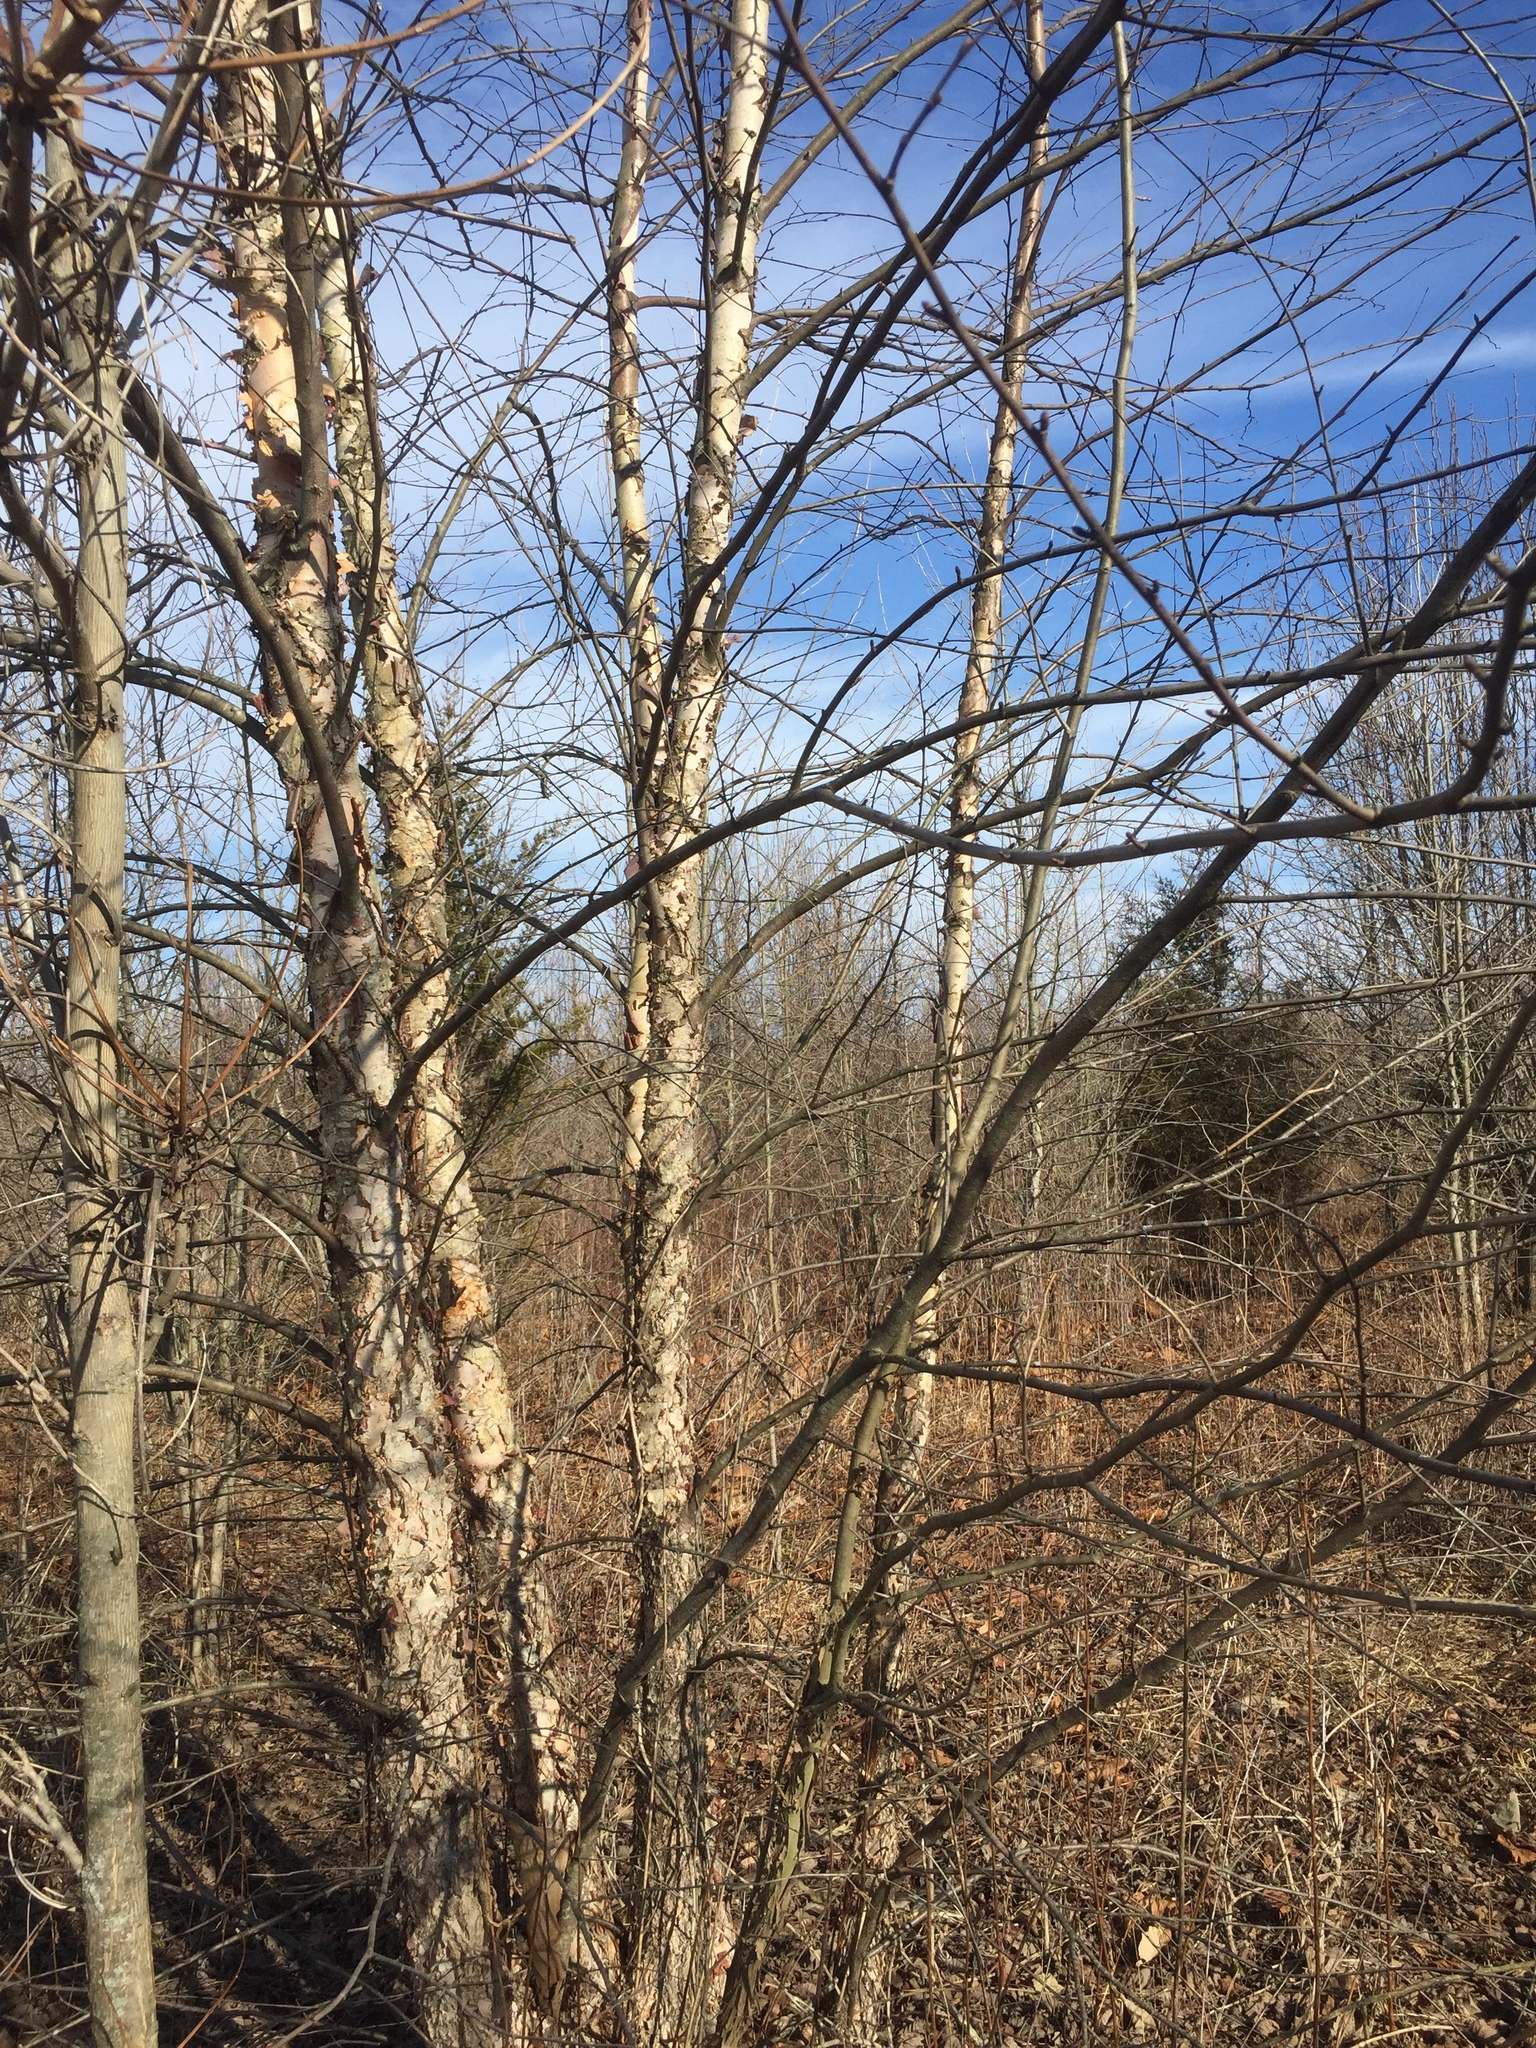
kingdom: Plantae
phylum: Tracheophyta
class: Magnoliopsida
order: Fagales
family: Betulaceae
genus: Betula
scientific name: Betula nigra
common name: Black birch
